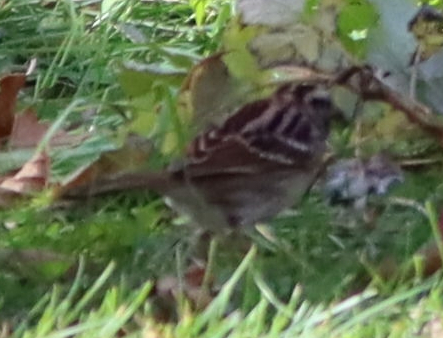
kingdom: Animalia
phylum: Chordata
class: Aves
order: Passeriformes
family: Passerellidae
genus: Zonotrichia
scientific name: Zonotrichia albicollis
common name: White-throated sparrow
